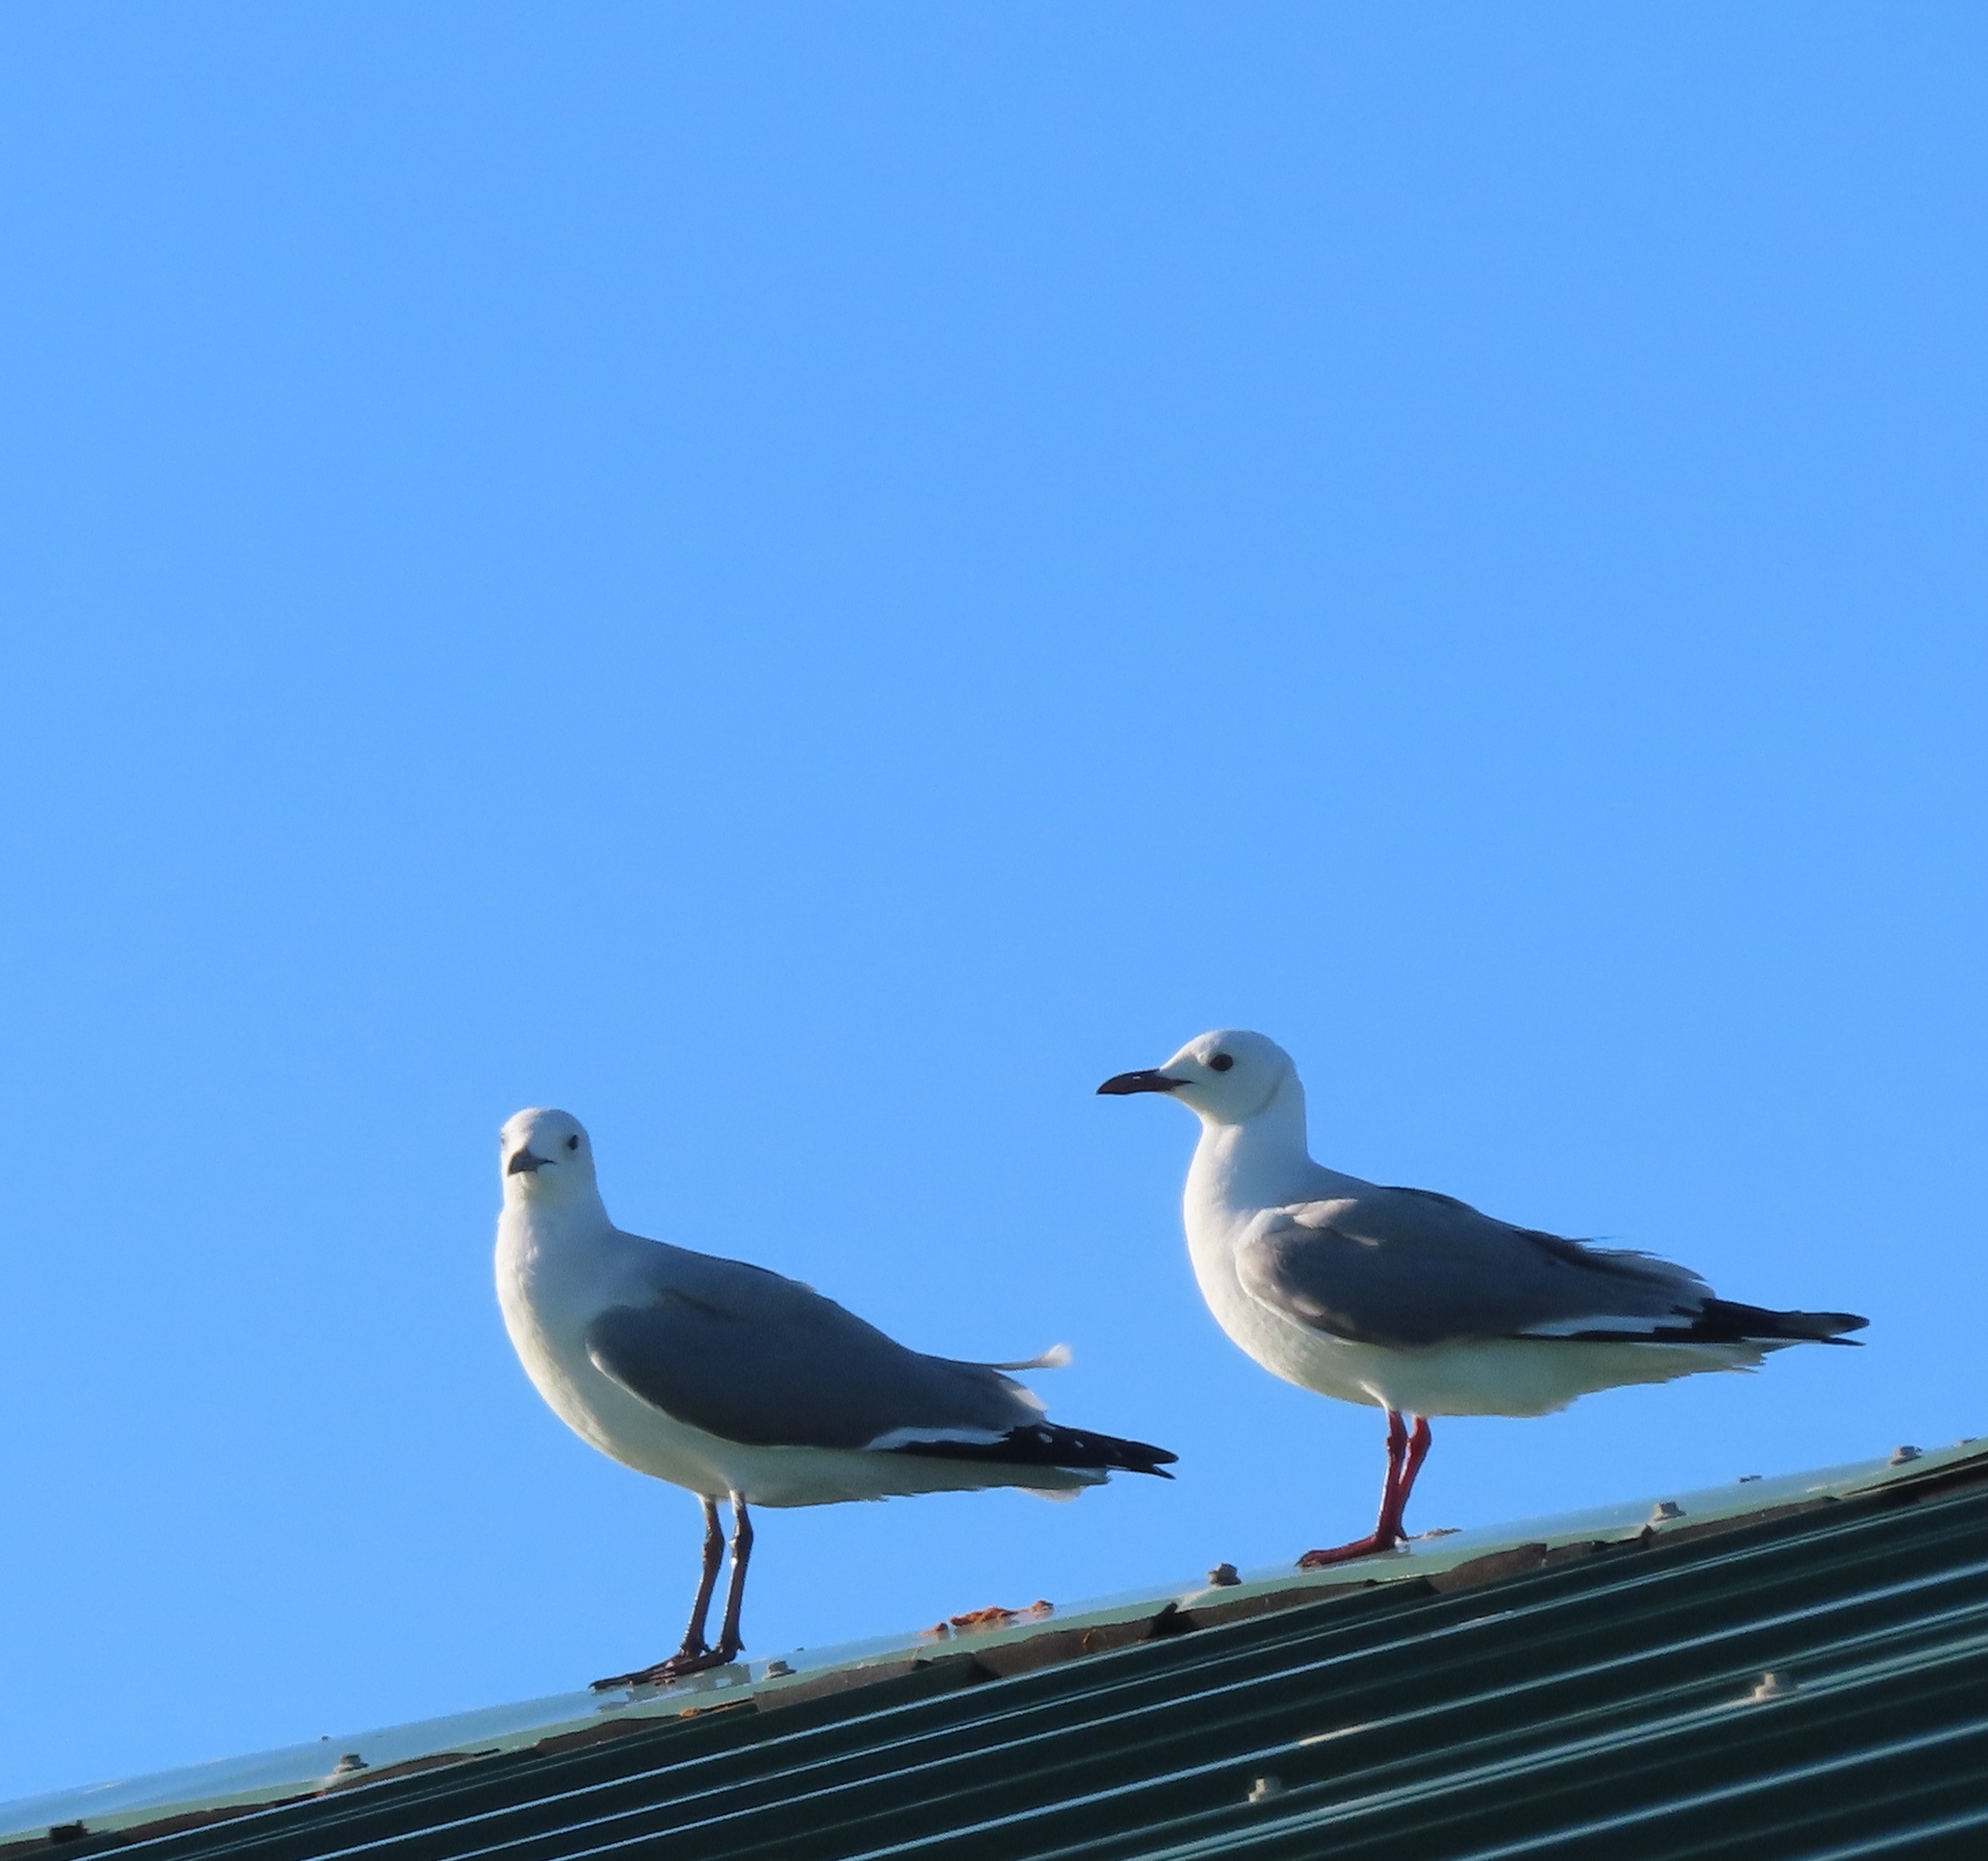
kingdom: Animalia
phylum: Chordata
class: Aves
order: Charadriiformes
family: Laridae
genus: Chroicocephalus
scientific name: Chroicocephalus hartlaubii
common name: Hartlaub's gull
